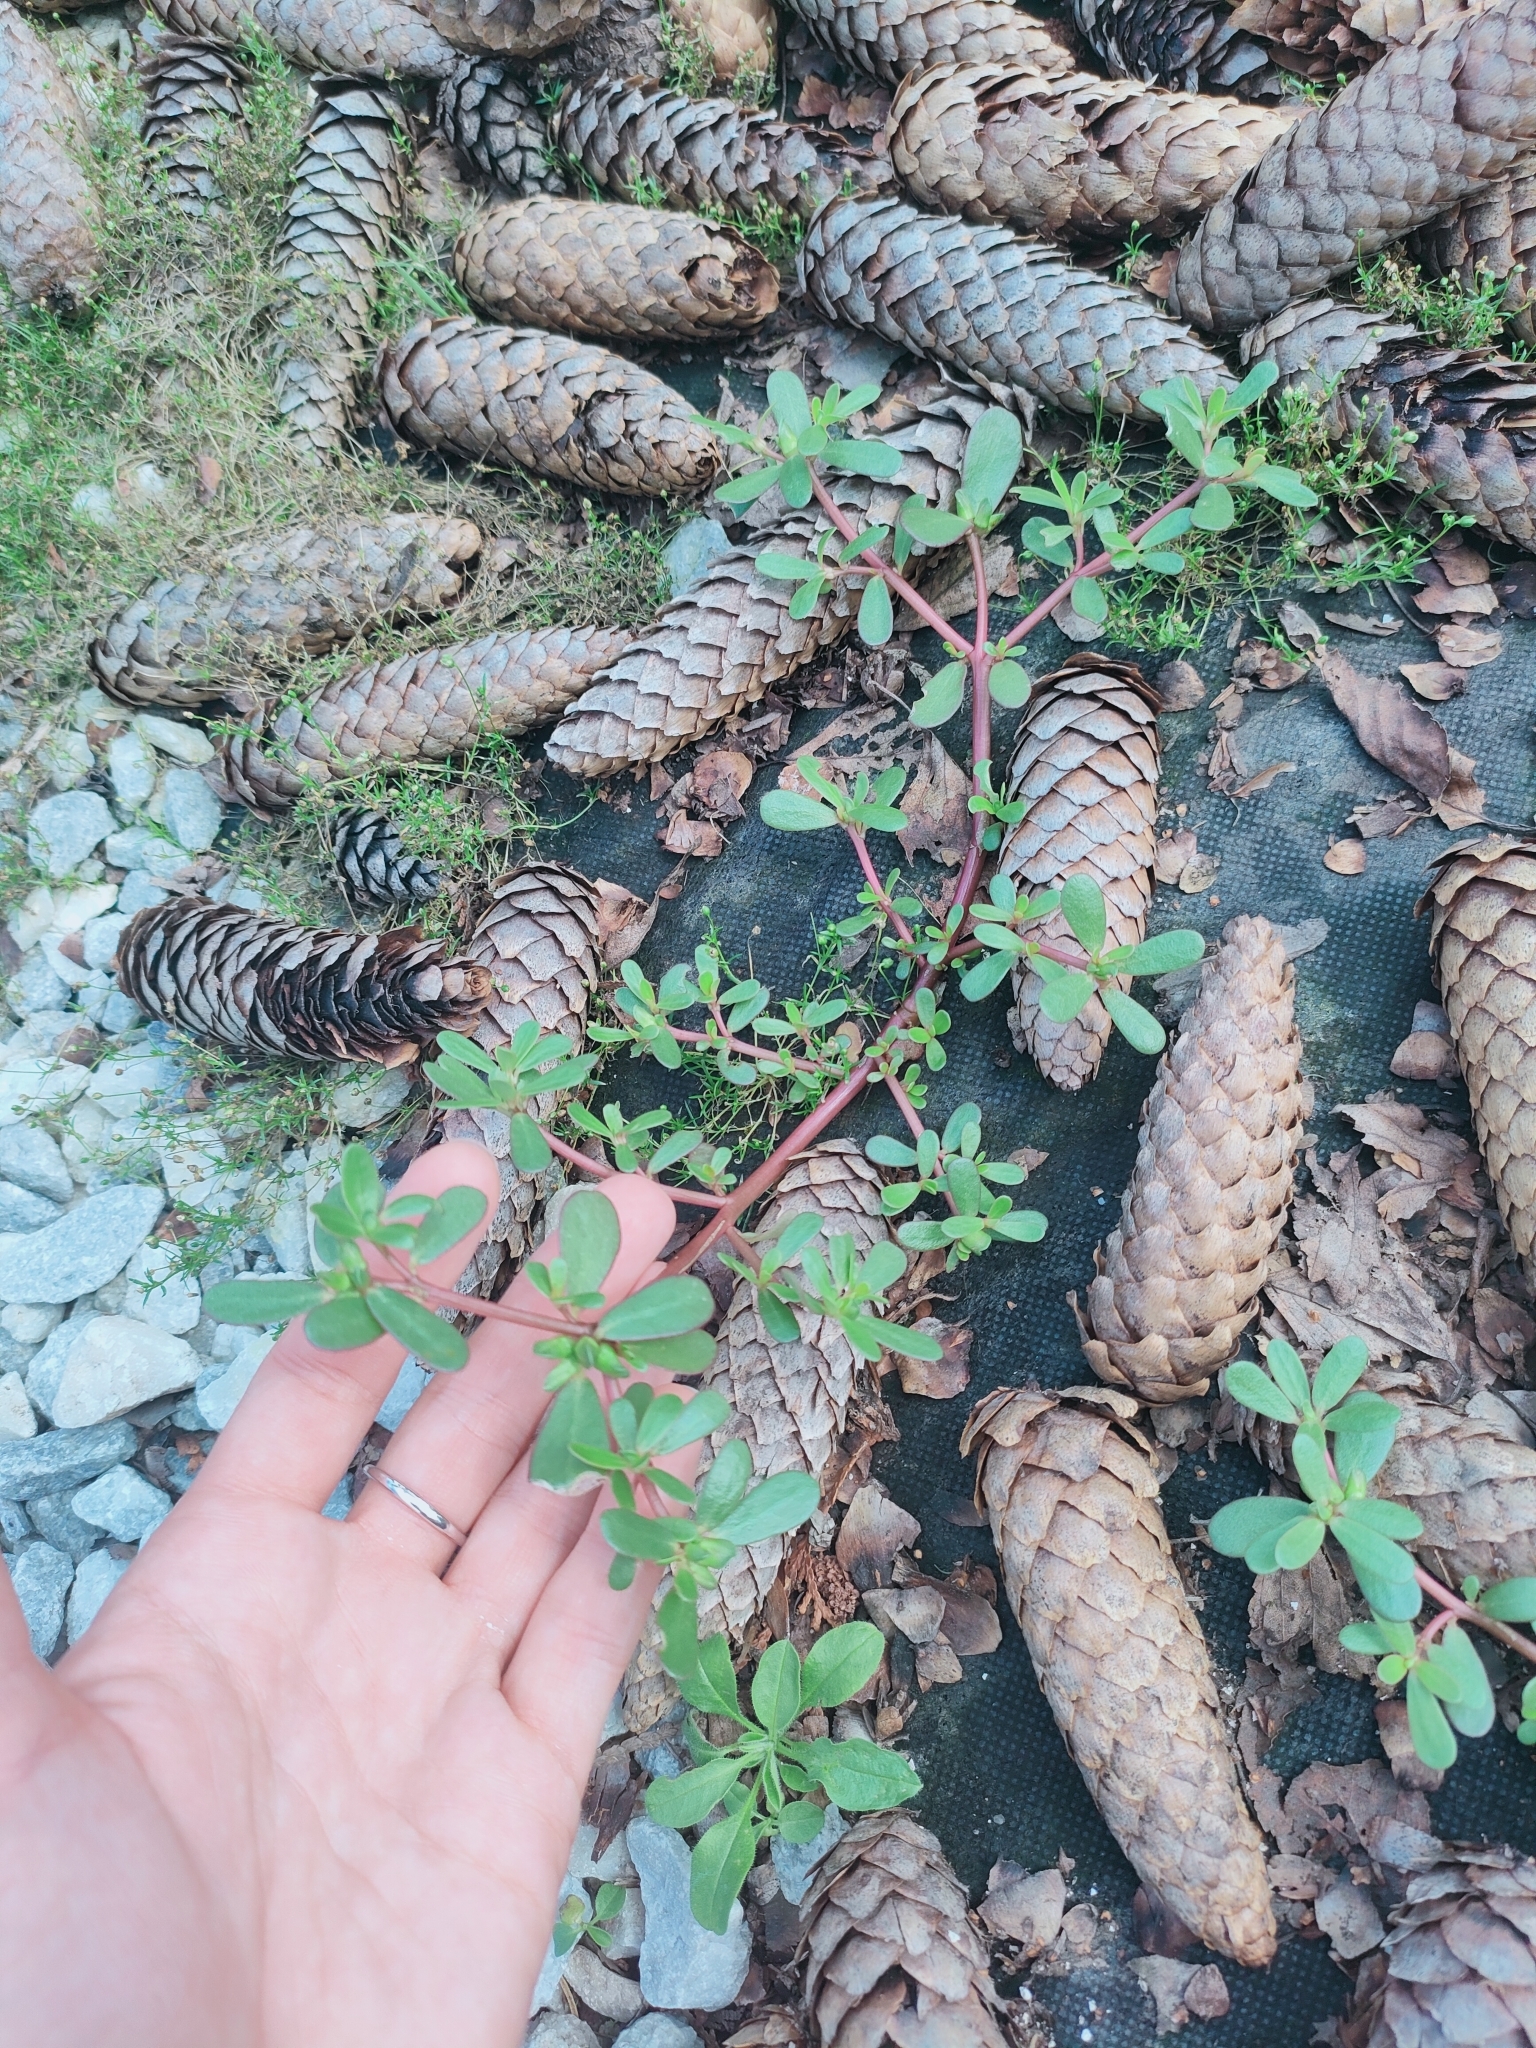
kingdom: Plantae
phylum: Tracheophyta
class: Magnoliopsida
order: Caryophyllales
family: Portulacaceae
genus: Portulaca
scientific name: Portulaca oleracea
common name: Common purslane
